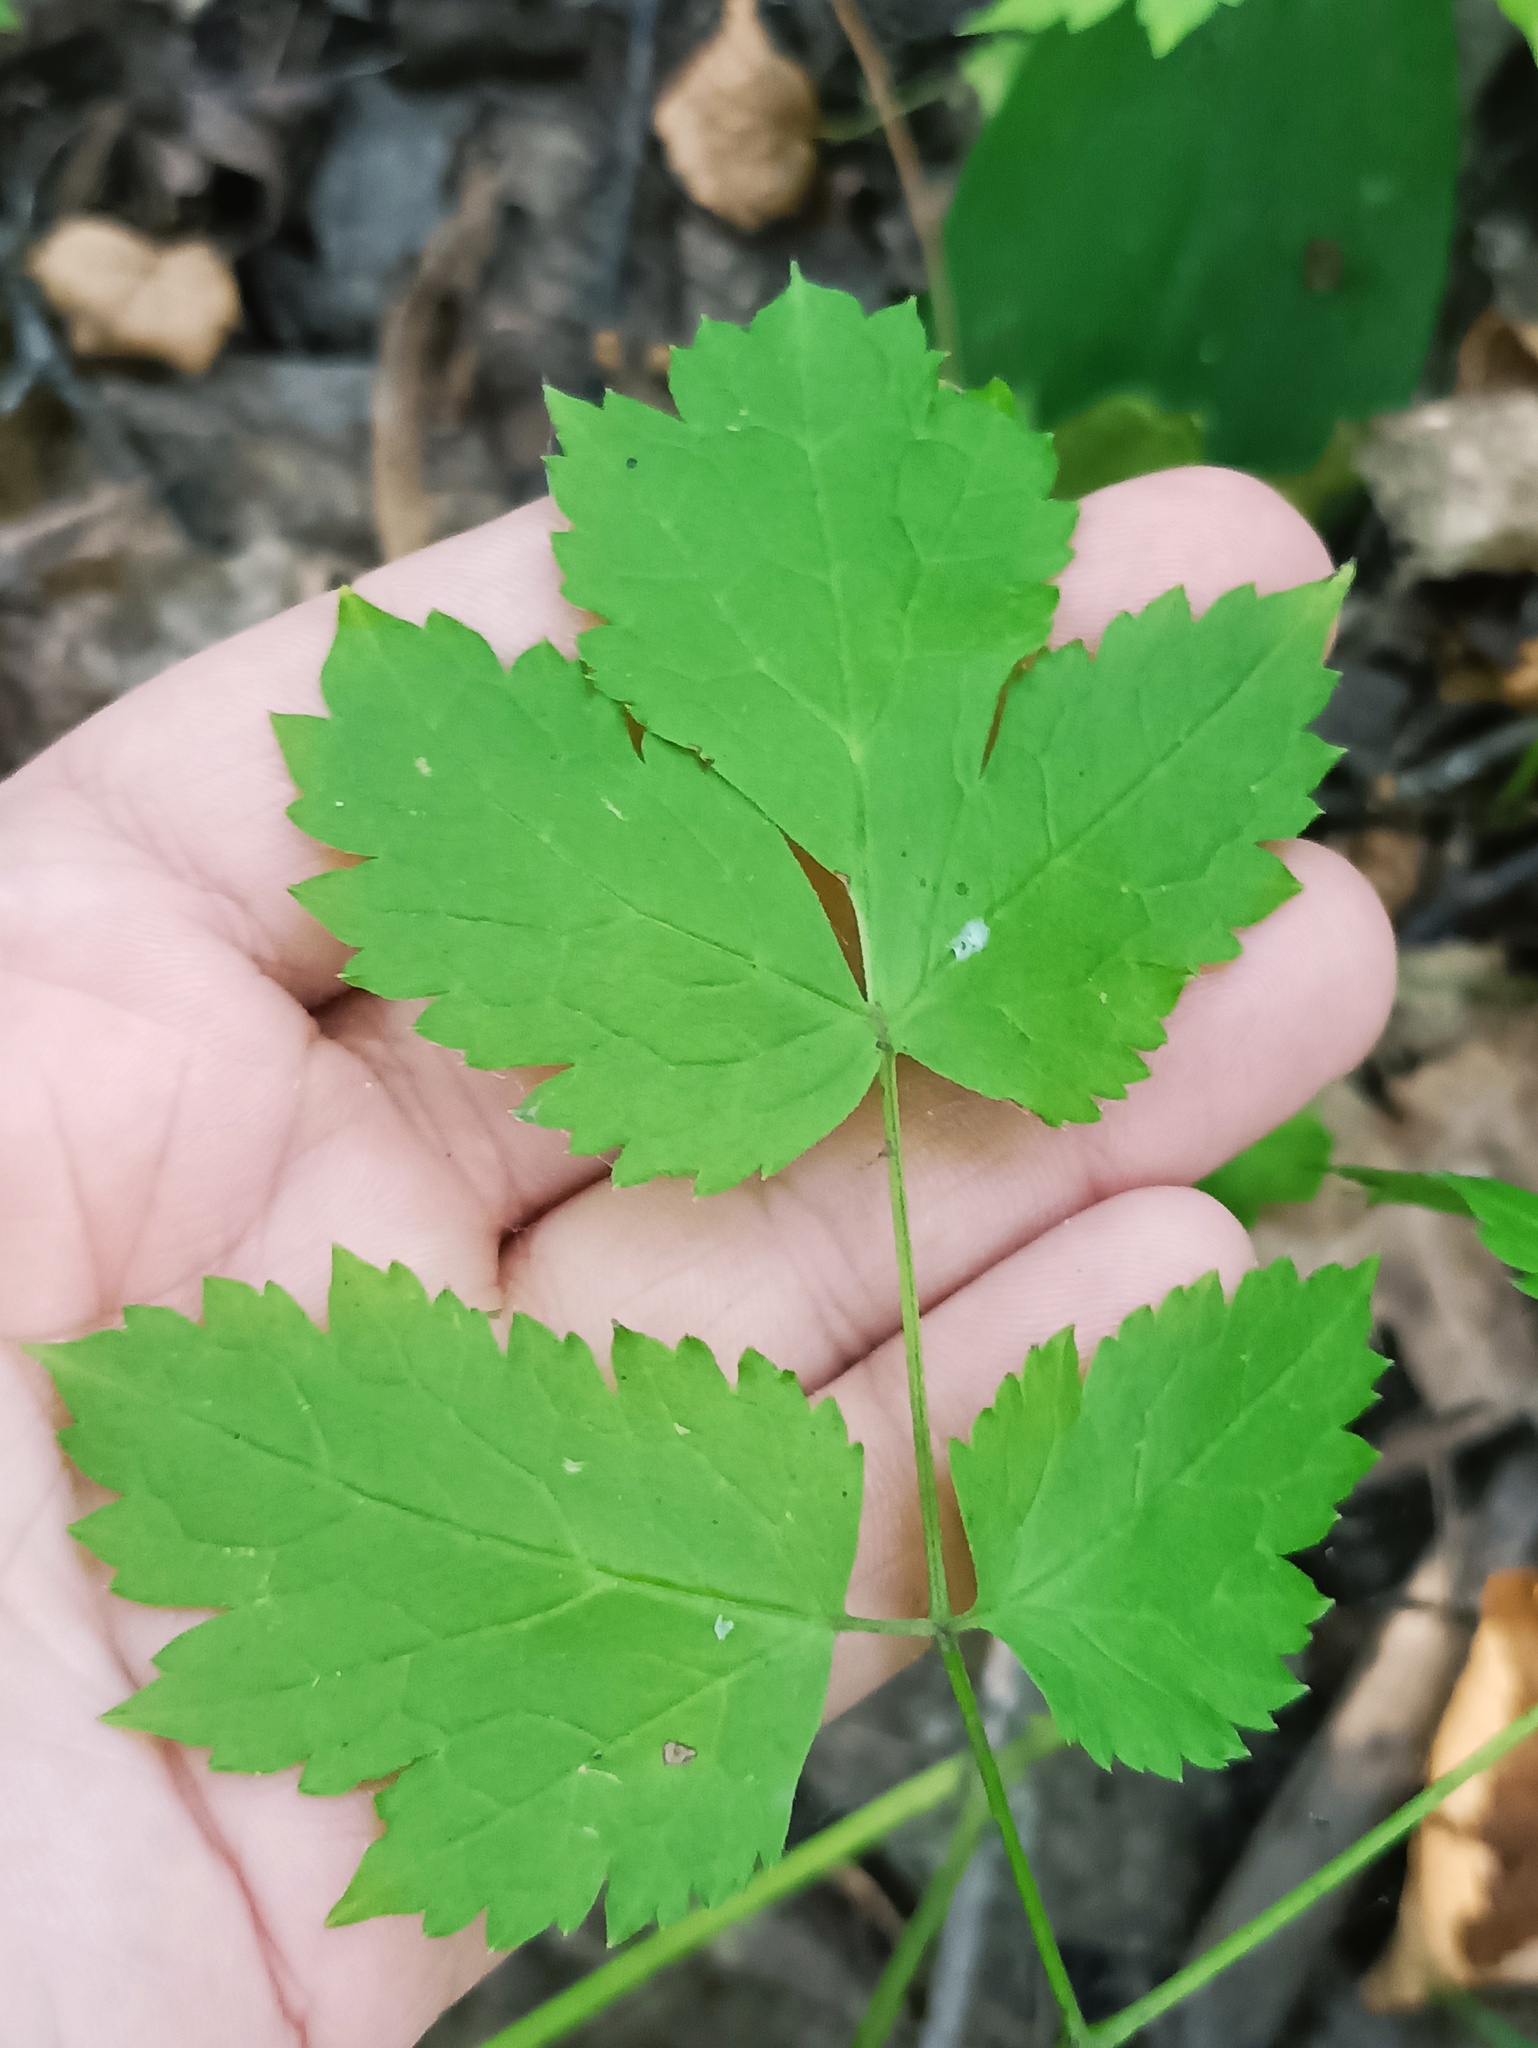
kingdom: Plantae
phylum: Tracheophyta
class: Magnoliopsida
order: Ranunculales
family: Ranunculaceae
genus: Actaea
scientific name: Actaea spicata
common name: Baneberry
